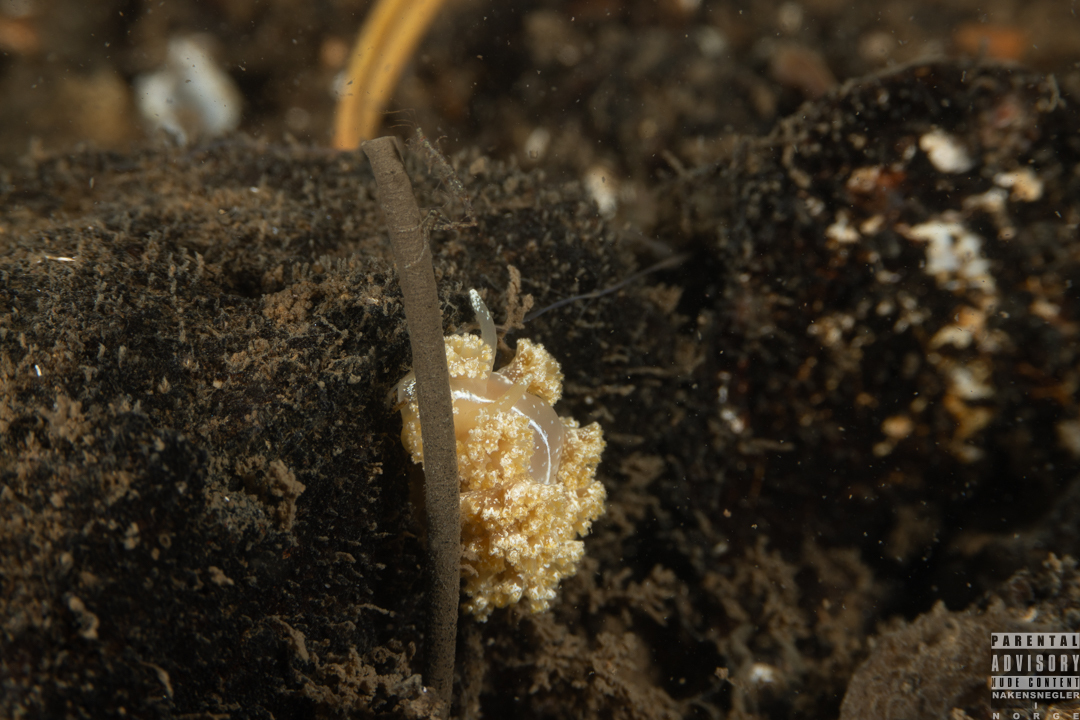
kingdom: Animalia
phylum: Mollusca
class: Gastropoda
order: Nudibranchia
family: Heroidae
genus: Hero
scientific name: Hero formosa
